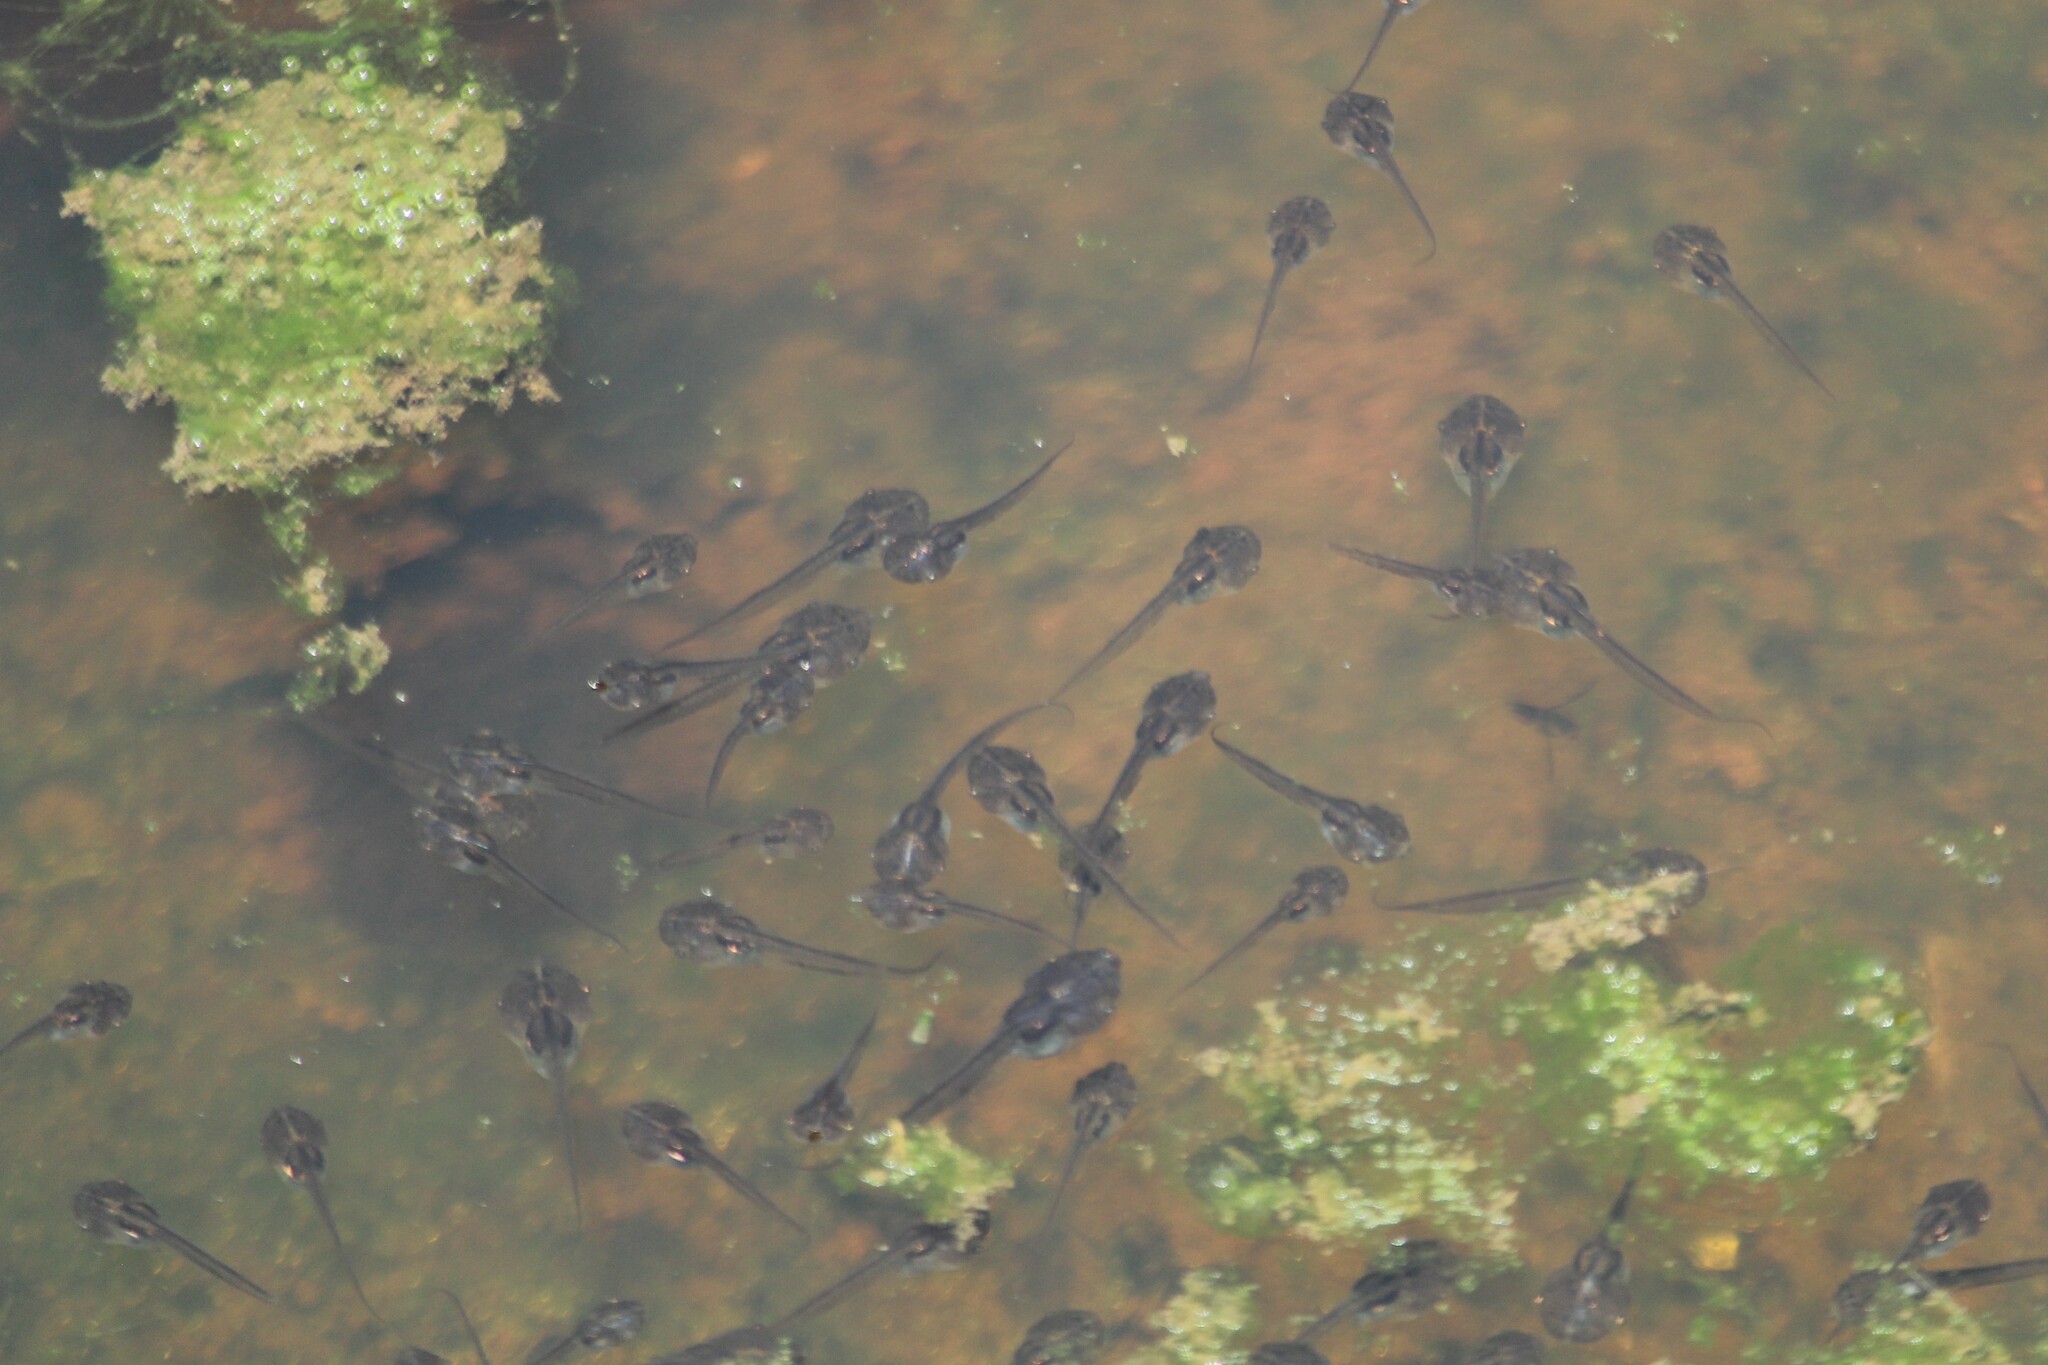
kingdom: Animalia
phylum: Chordata
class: Amphibia
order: Anura
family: Bufonidae
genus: Duttaphrynus
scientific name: Duttaphrynus melanostictus
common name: Common sunda toad
